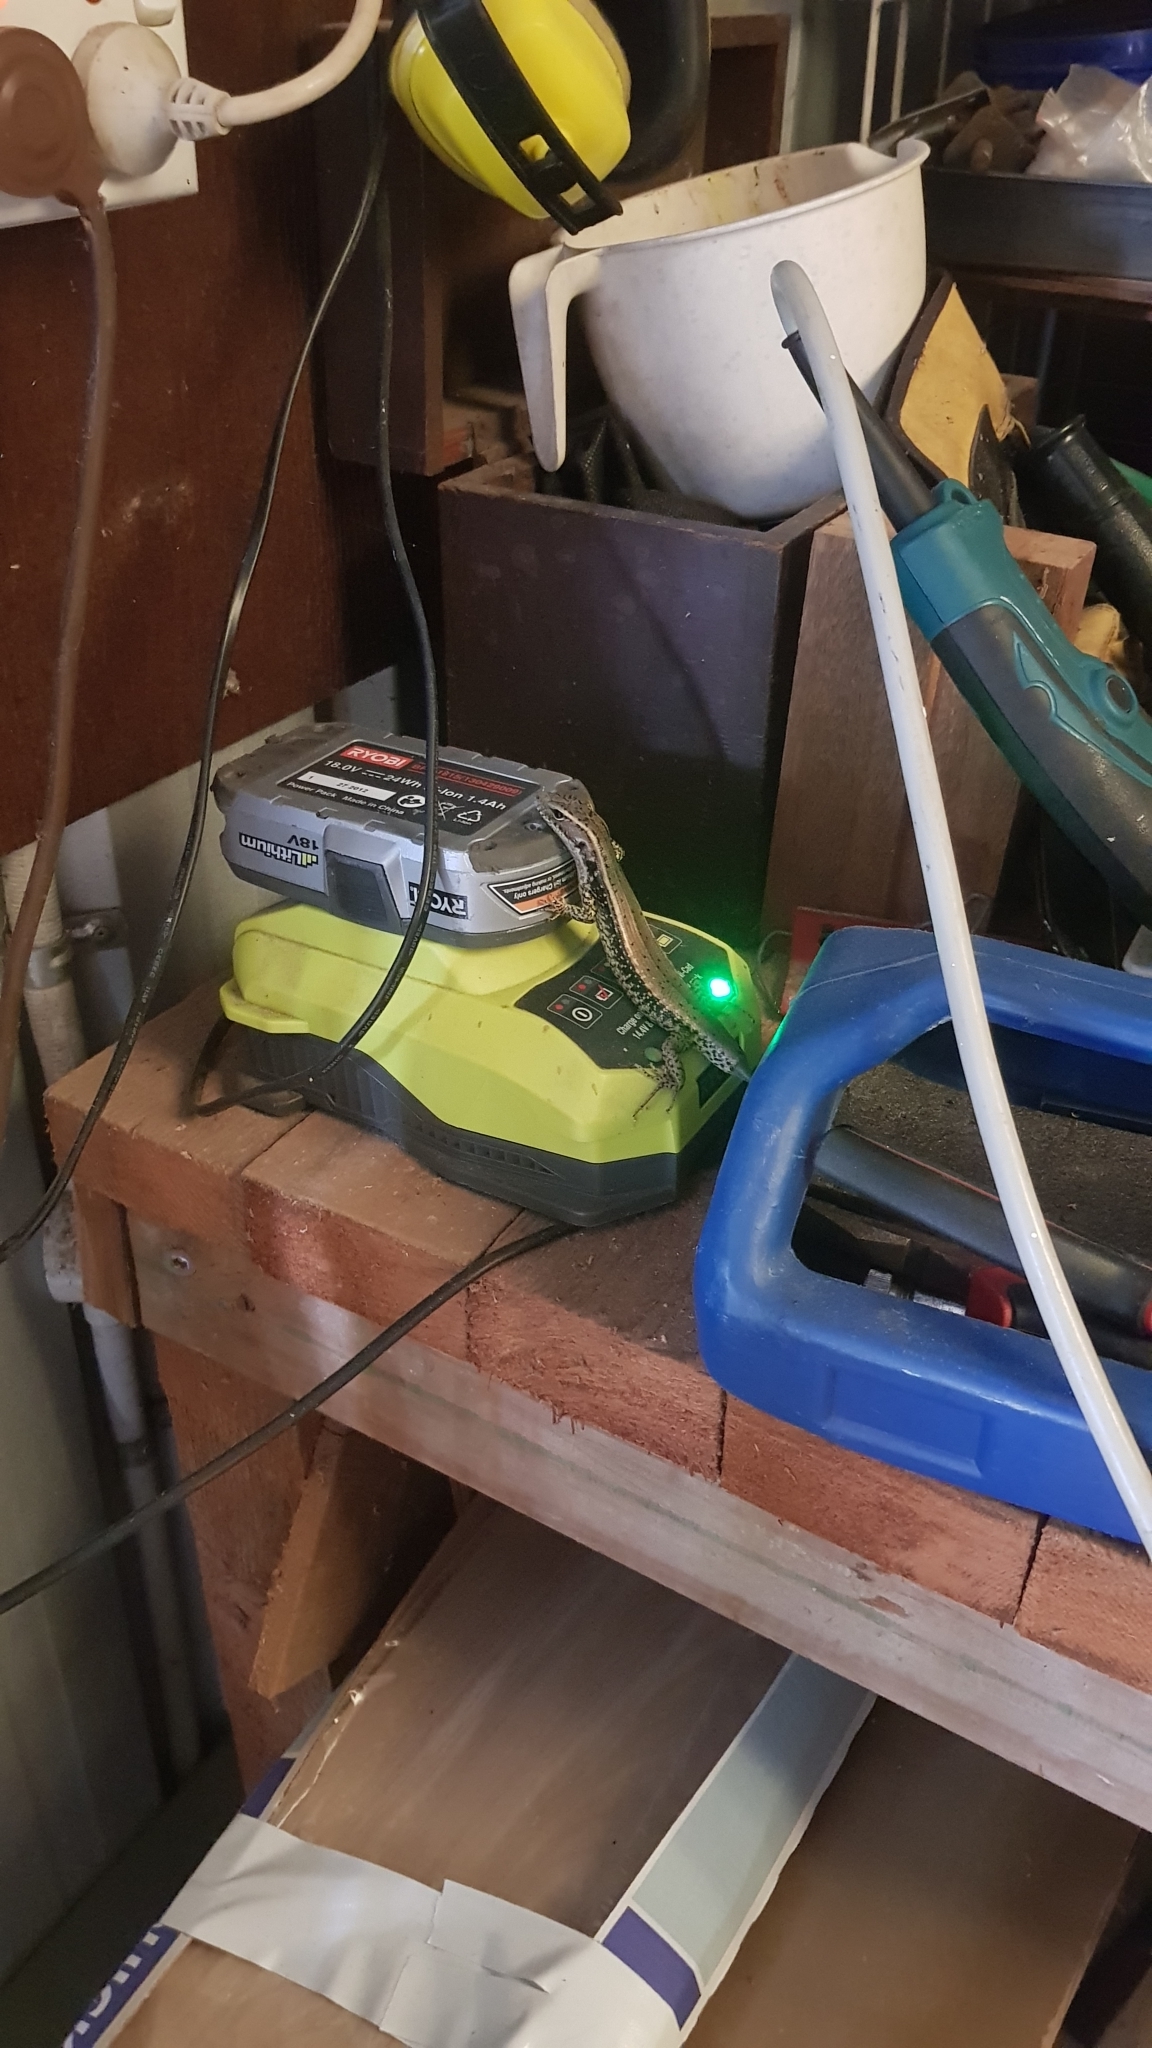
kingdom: Animalia
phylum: Chordata
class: Squamata
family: Scincidae
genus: Eulamprus
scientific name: Eulamprus quoyii
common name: Eastern water skink
